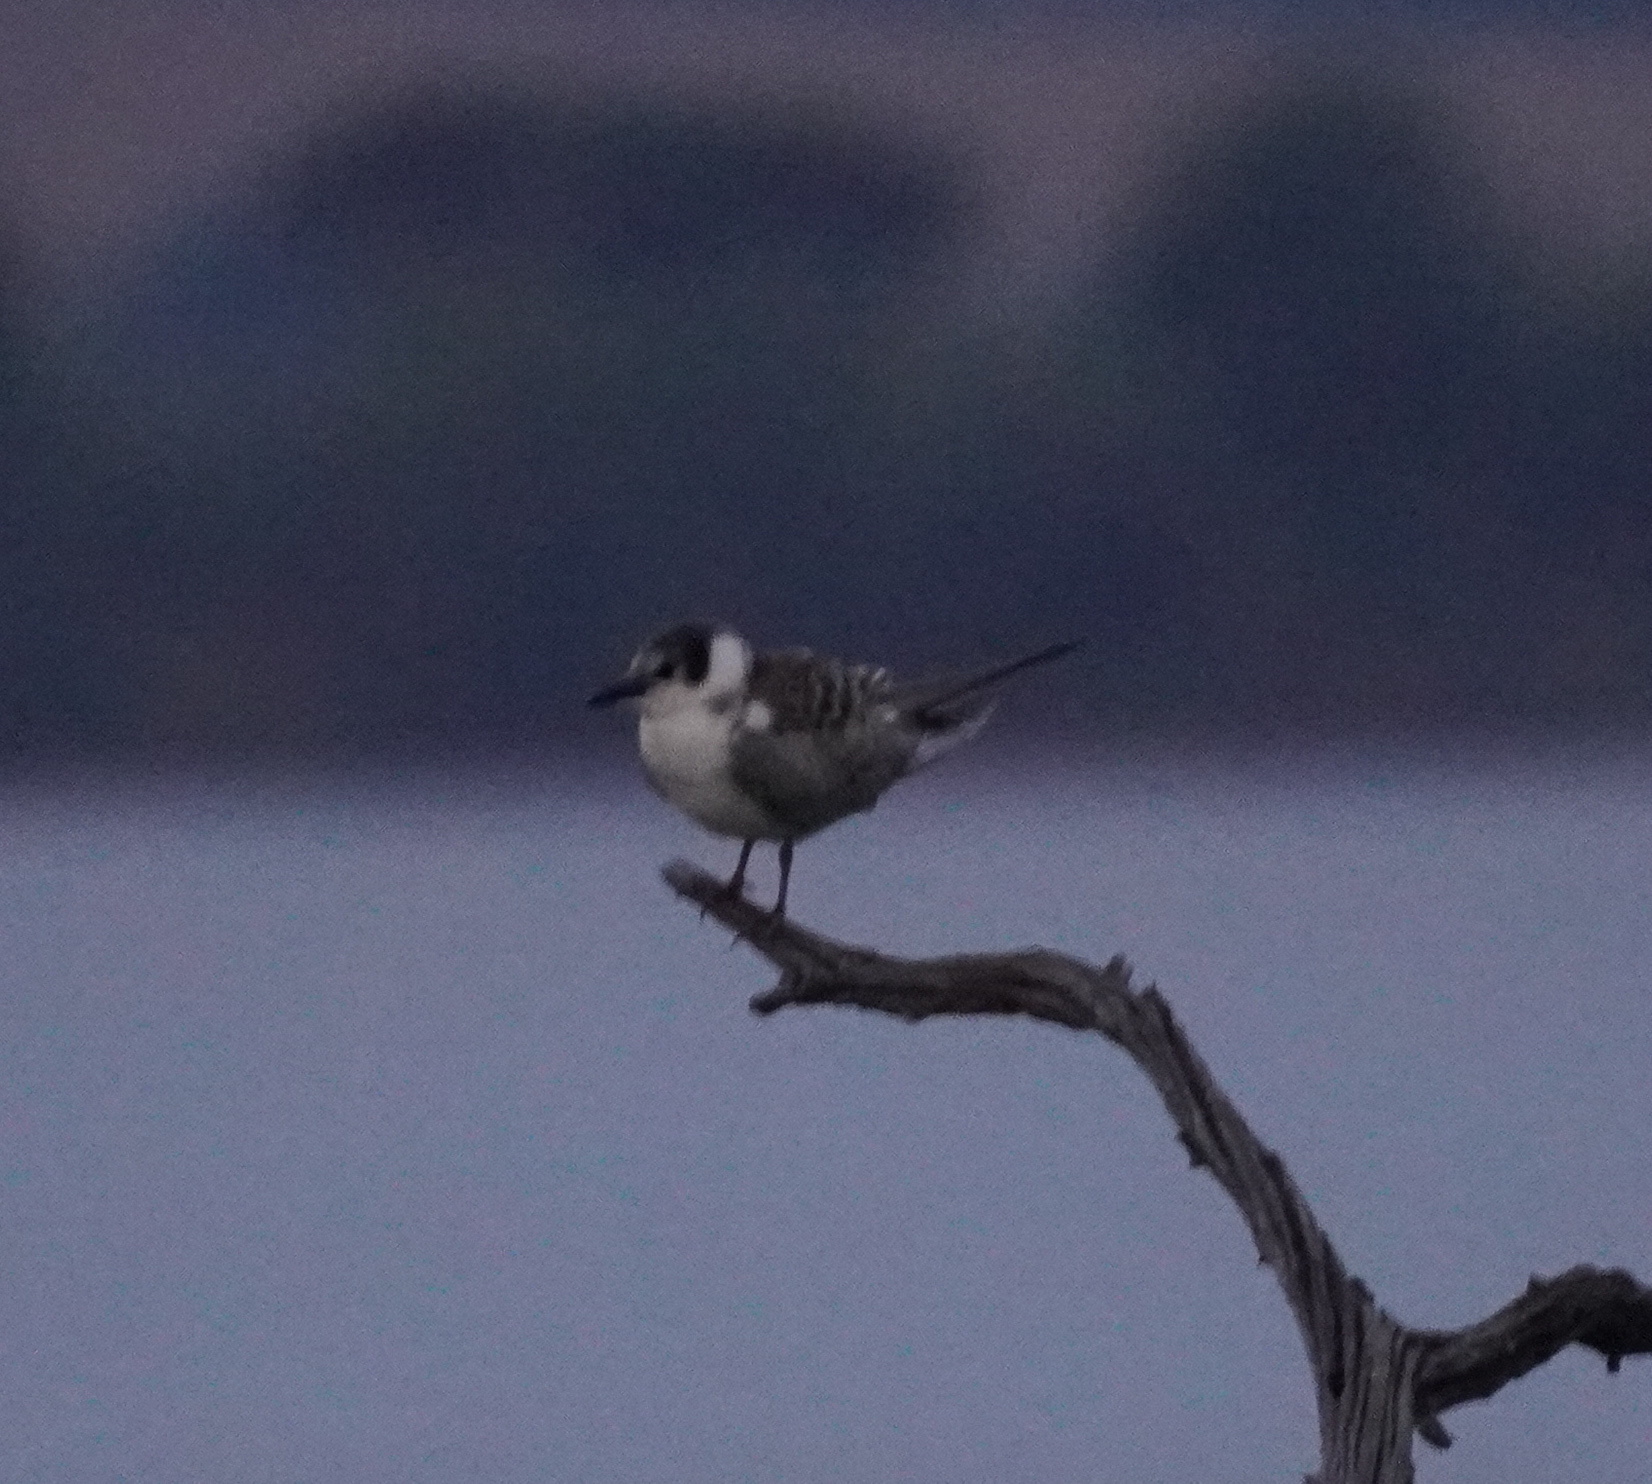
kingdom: Animalia
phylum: Chordata
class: Aves
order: Charadriiformes
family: Laridae
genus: Chlidonias
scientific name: Chlidonias leucopterus
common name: White-winged tern
